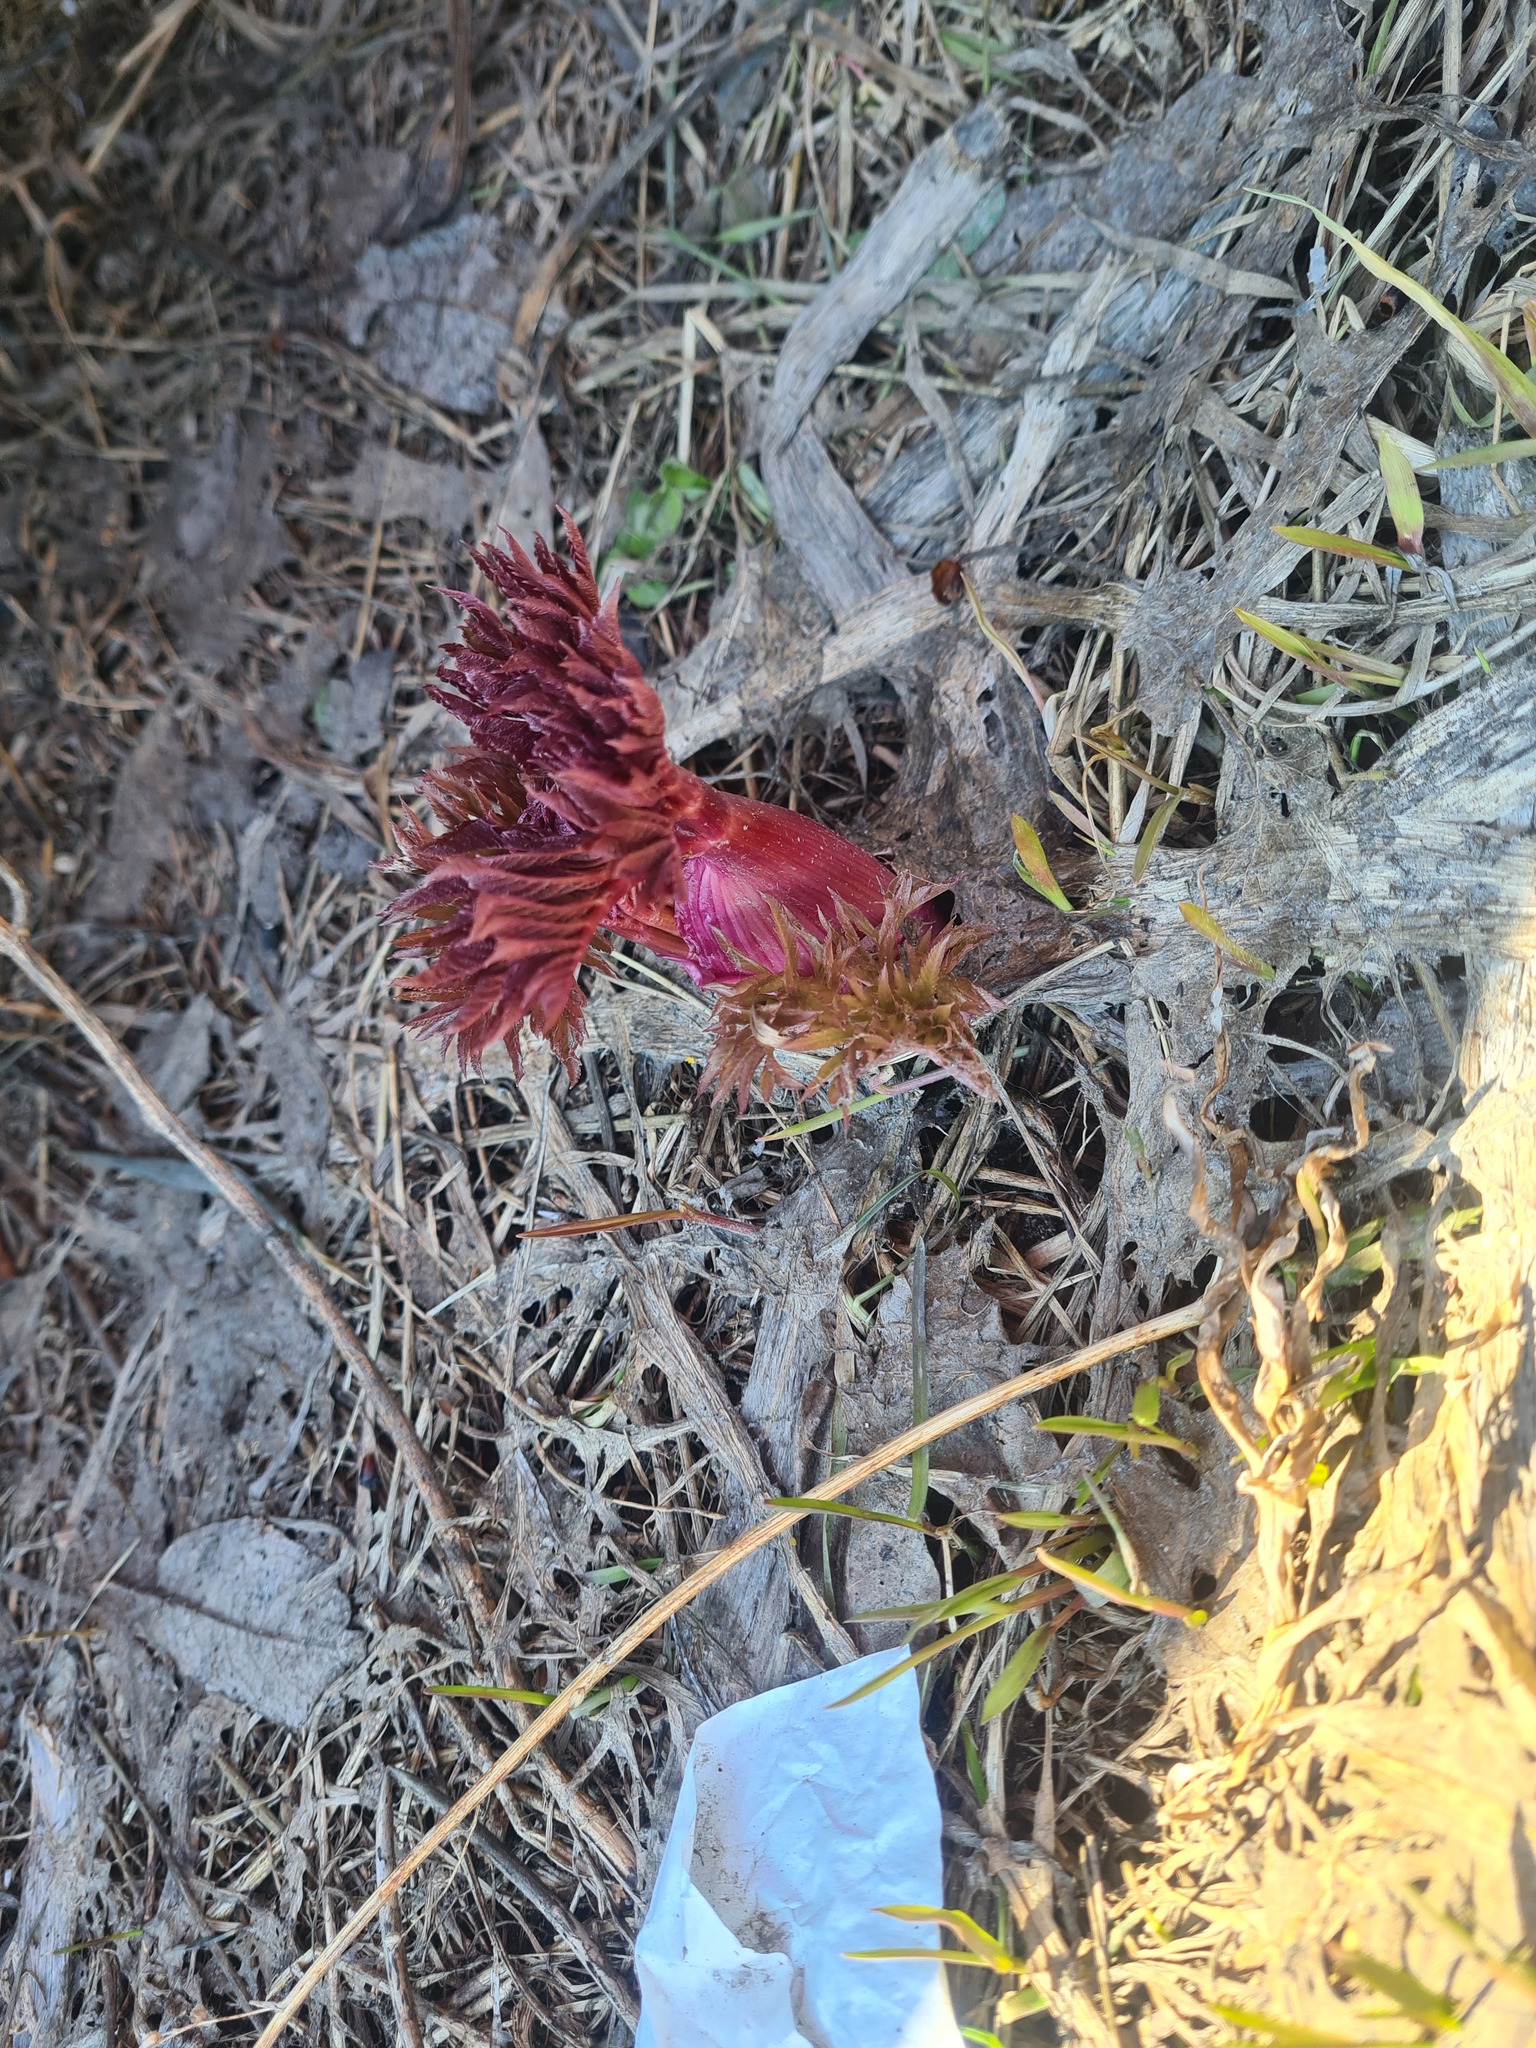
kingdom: Plantae
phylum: Tracheophyta
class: Magnoliopsida
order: Apiales
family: Apiaceae
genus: Angelica
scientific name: Angelica decurrens
